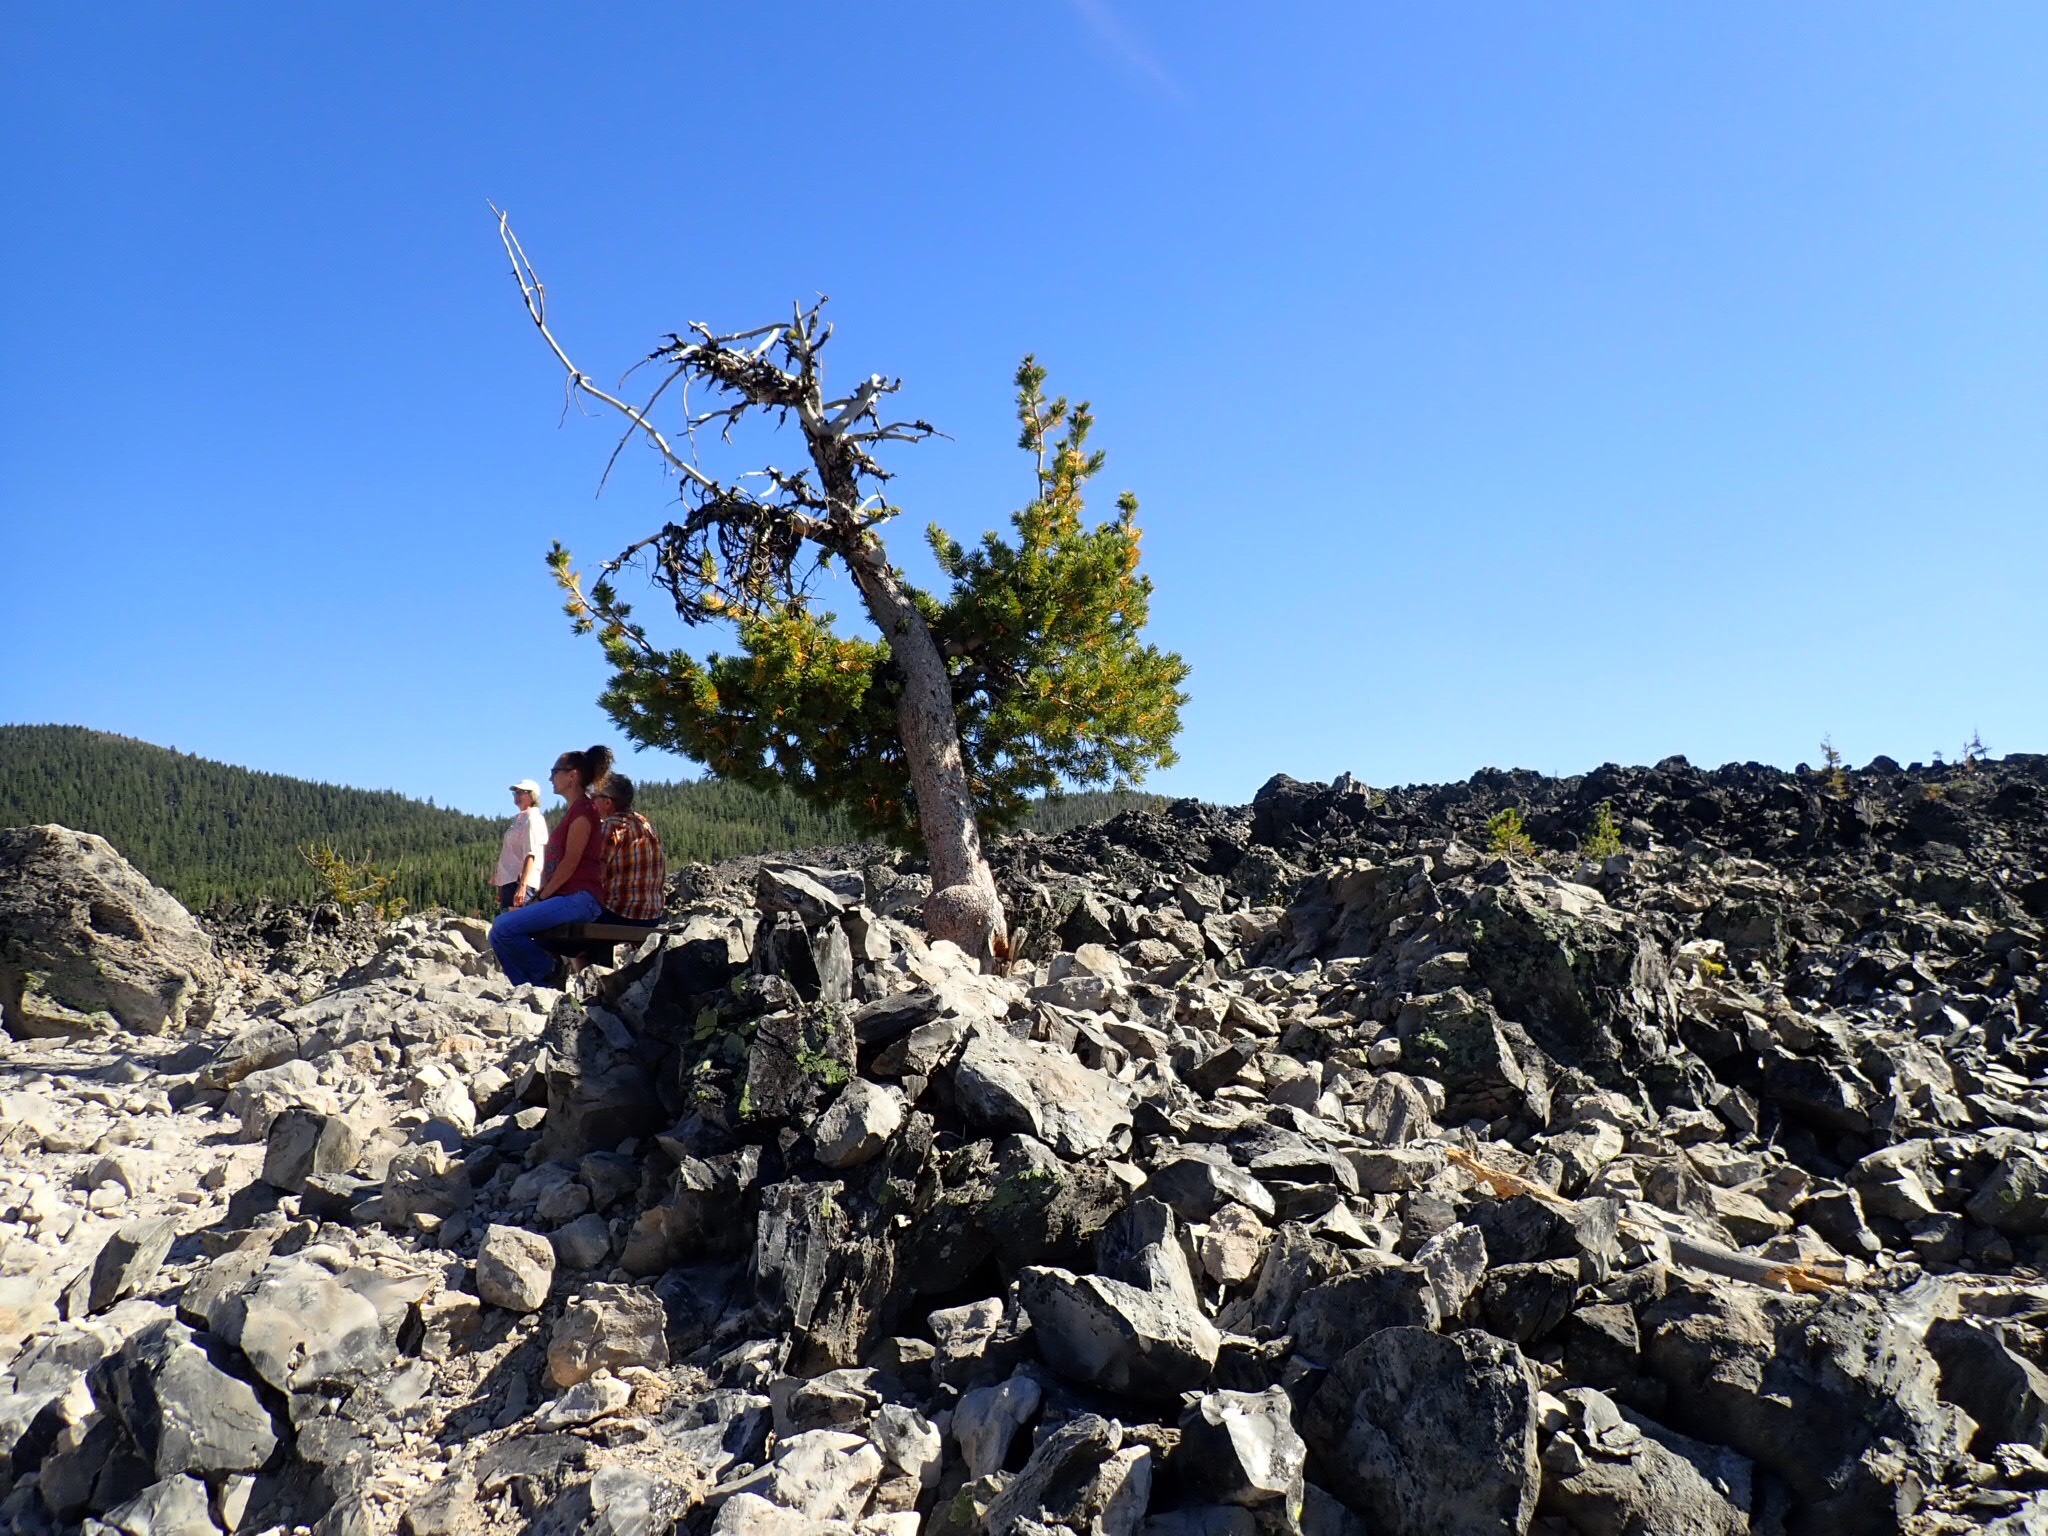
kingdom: Plantae
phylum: Tracheophyta
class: Pinopsida
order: Pinales
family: Pinaceae
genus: Pinus
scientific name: Pinus albicaulis
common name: Whitebark pine
